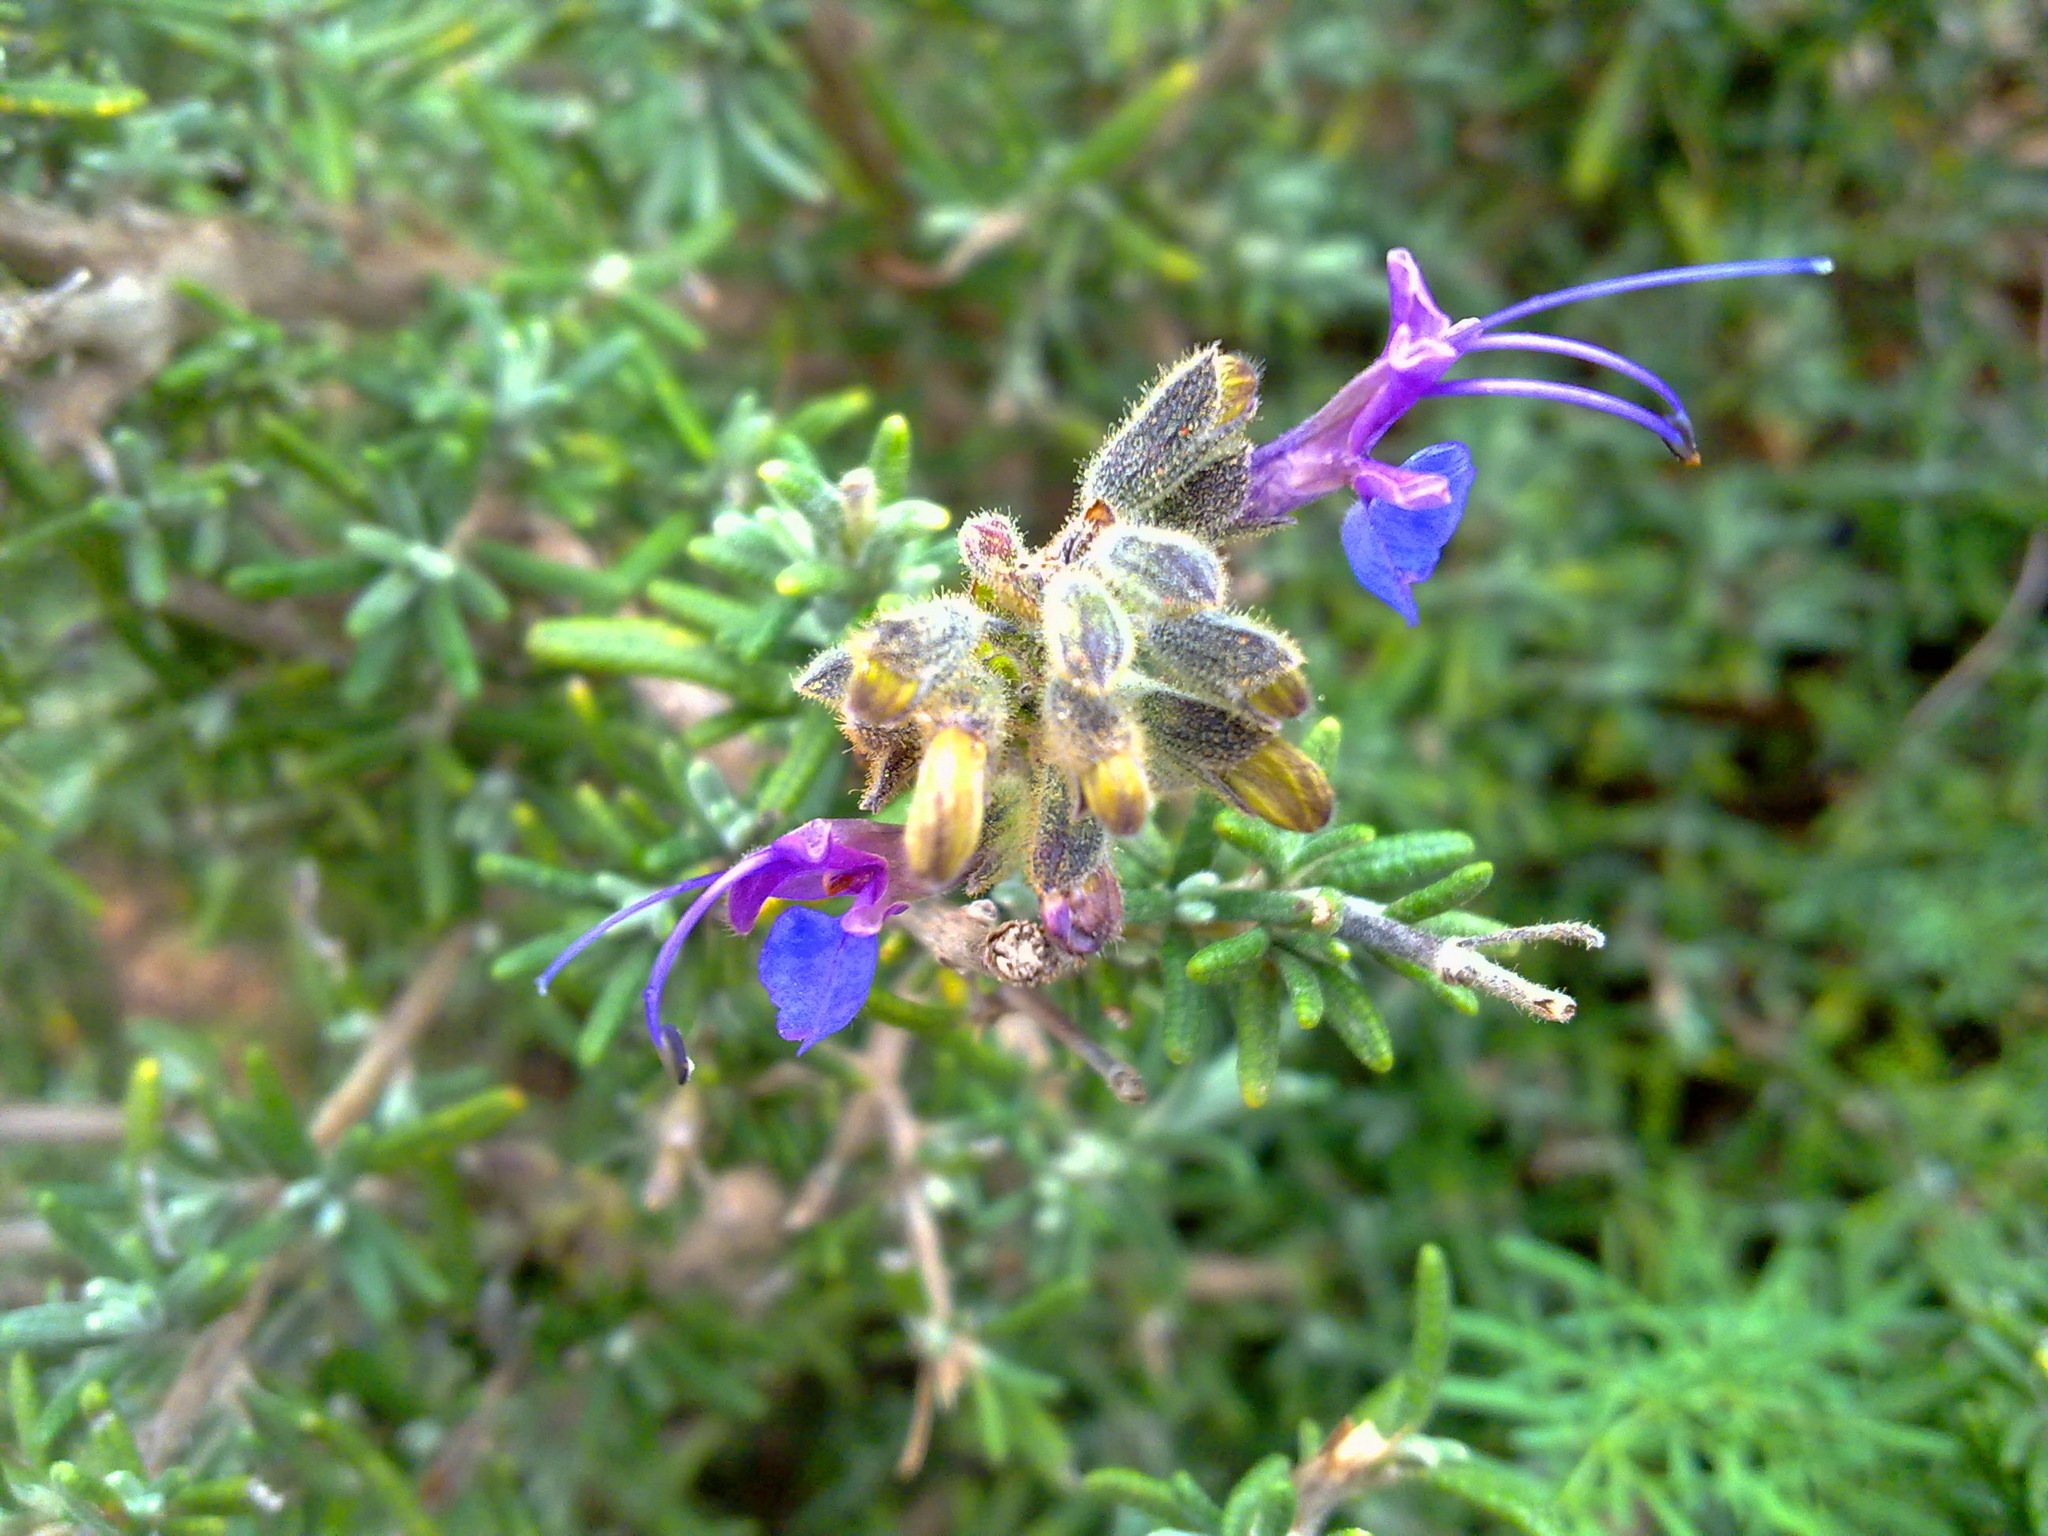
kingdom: Plantae
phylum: Tracheophyta
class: Magnoliopsida
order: Lamiales
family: Lamiaceae
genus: Salvia
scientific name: Salvia jordanii
